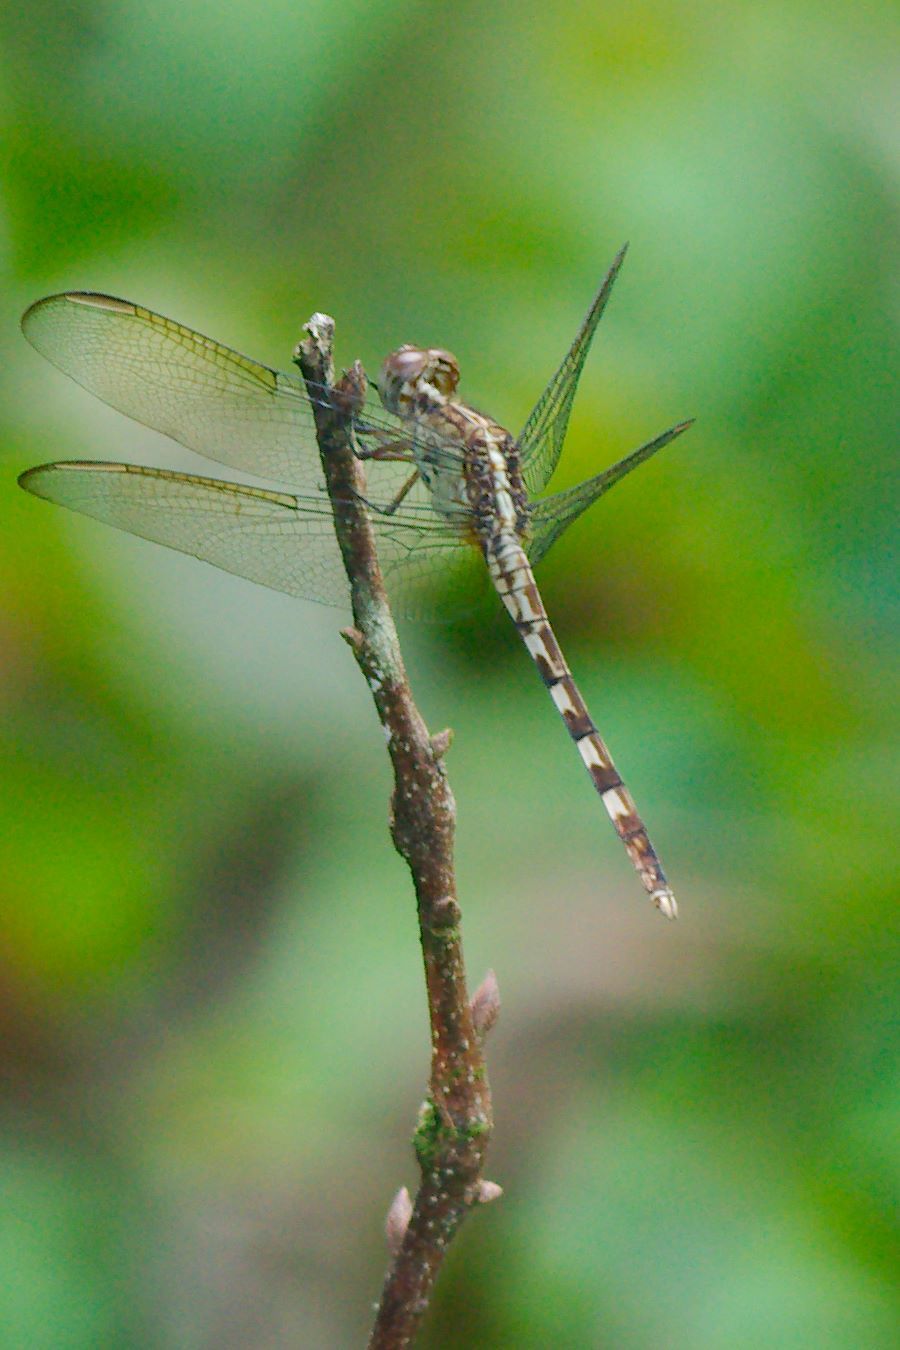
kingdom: Animalia
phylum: Arthropoda
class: Insecta
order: Odonata
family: Libellulidae
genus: Erythrodiplax
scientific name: Erythrodiplax umbrata
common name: Band-winged dragonlet
